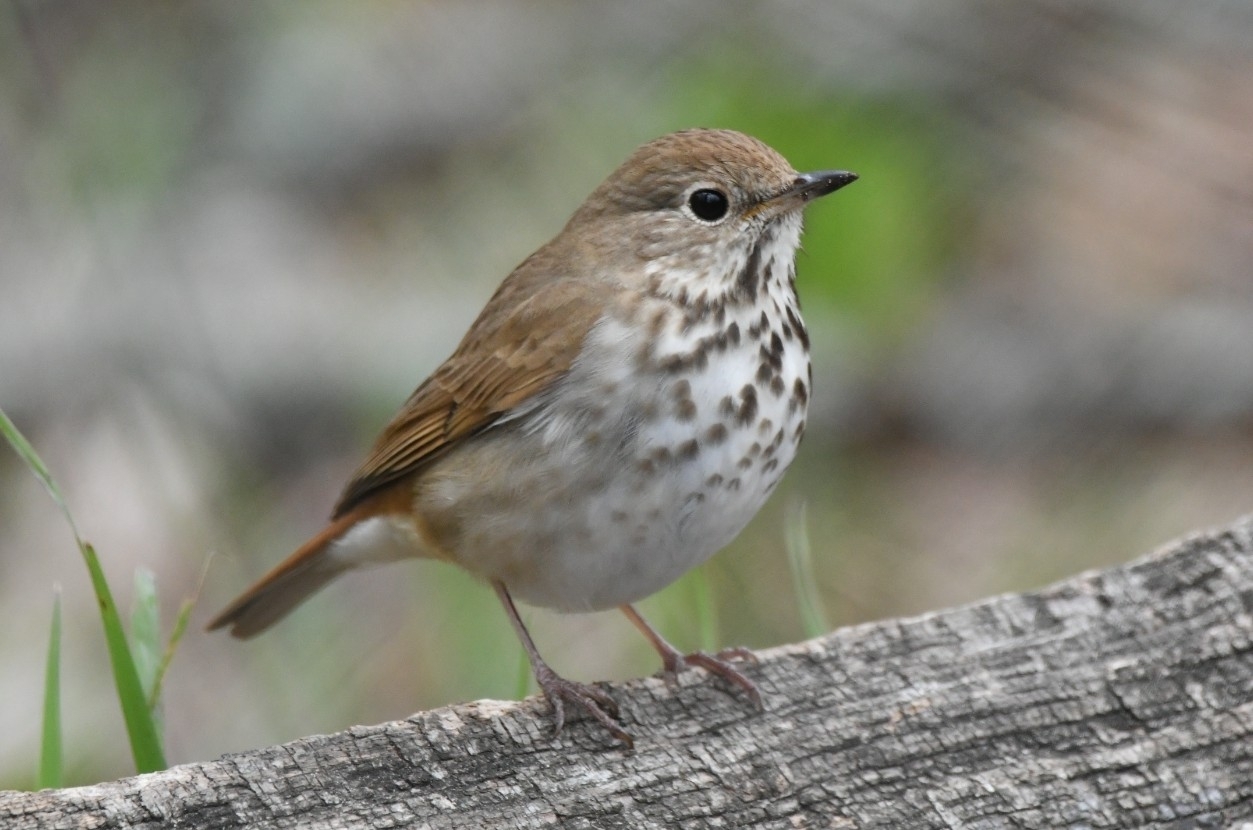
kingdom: Animalia
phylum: Chordata
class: Aves
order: Passeriformes
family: Turdidae
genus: Catharus
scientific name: Catharus guttatus
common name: Hermit thrush
